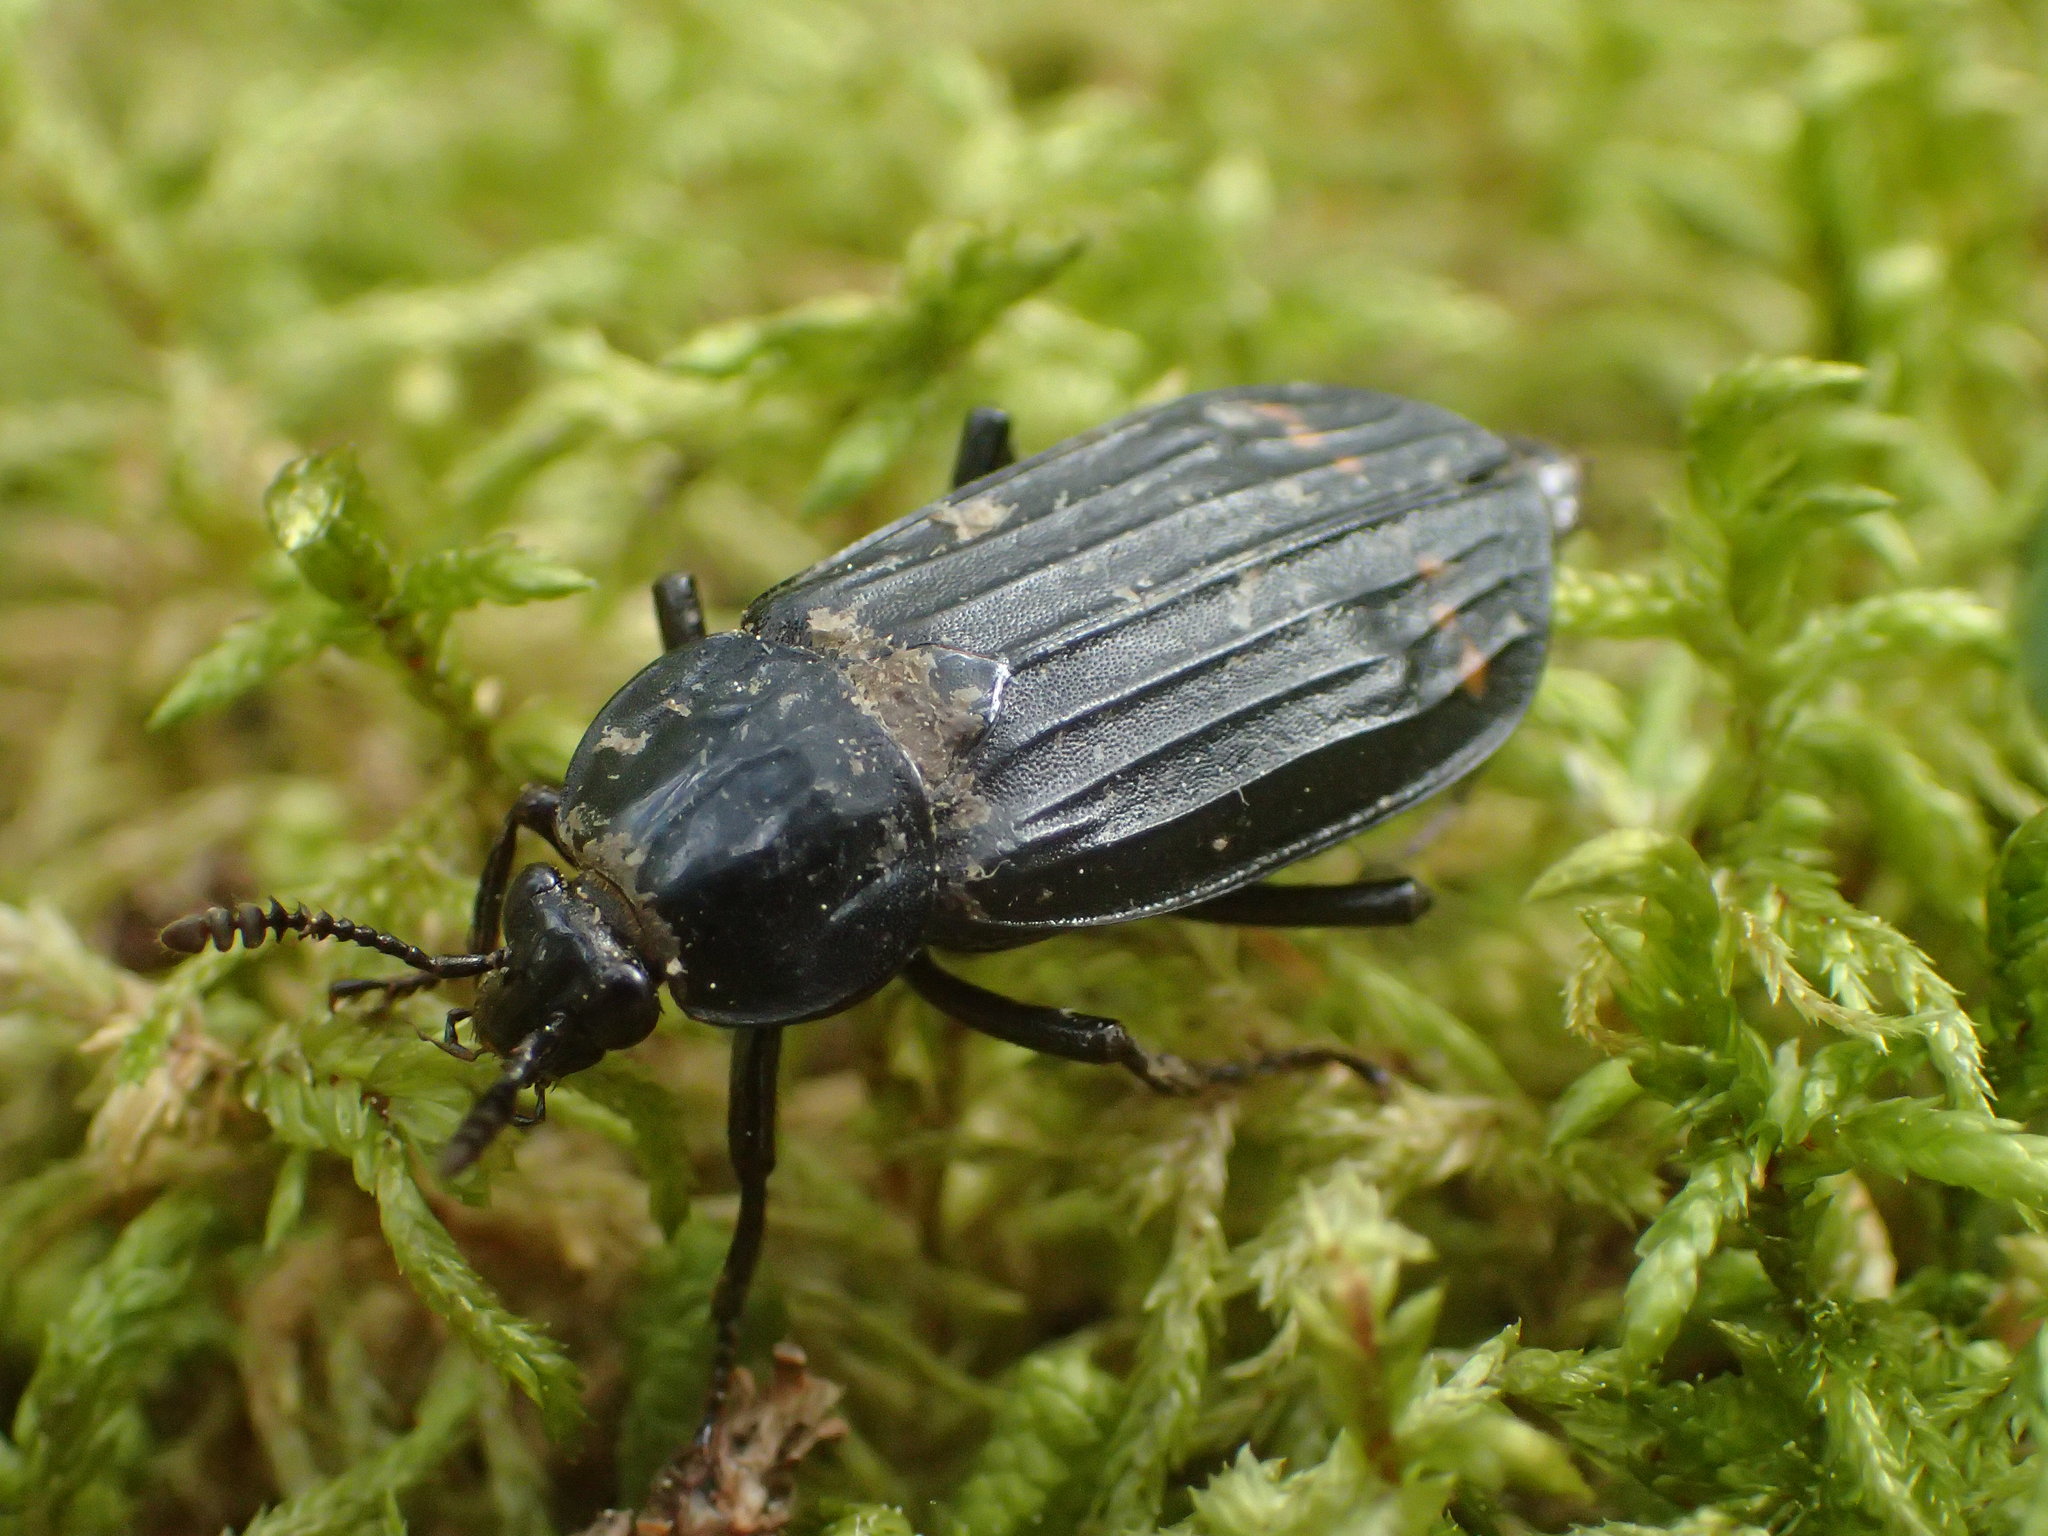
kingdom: Animalia
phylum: Arthropoda
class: Insecta
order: Coleoptera
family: Staphylinidae
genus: Necrodes
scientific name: Necrodes surinamensis
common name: Red-lined carrion beetle
